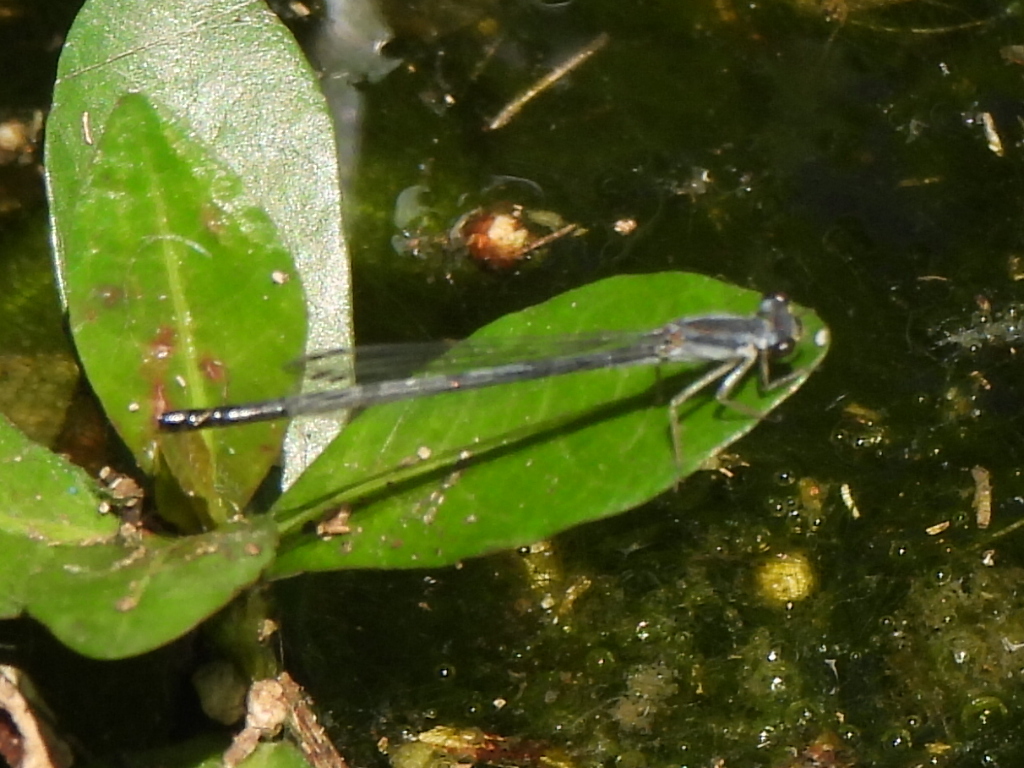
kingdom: Animalia
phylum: Arthropoda
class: Insecta
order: Odonata
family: Coenagrionidae
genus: Ischnura
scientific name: Ischnura posita
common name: Fragile forktail
